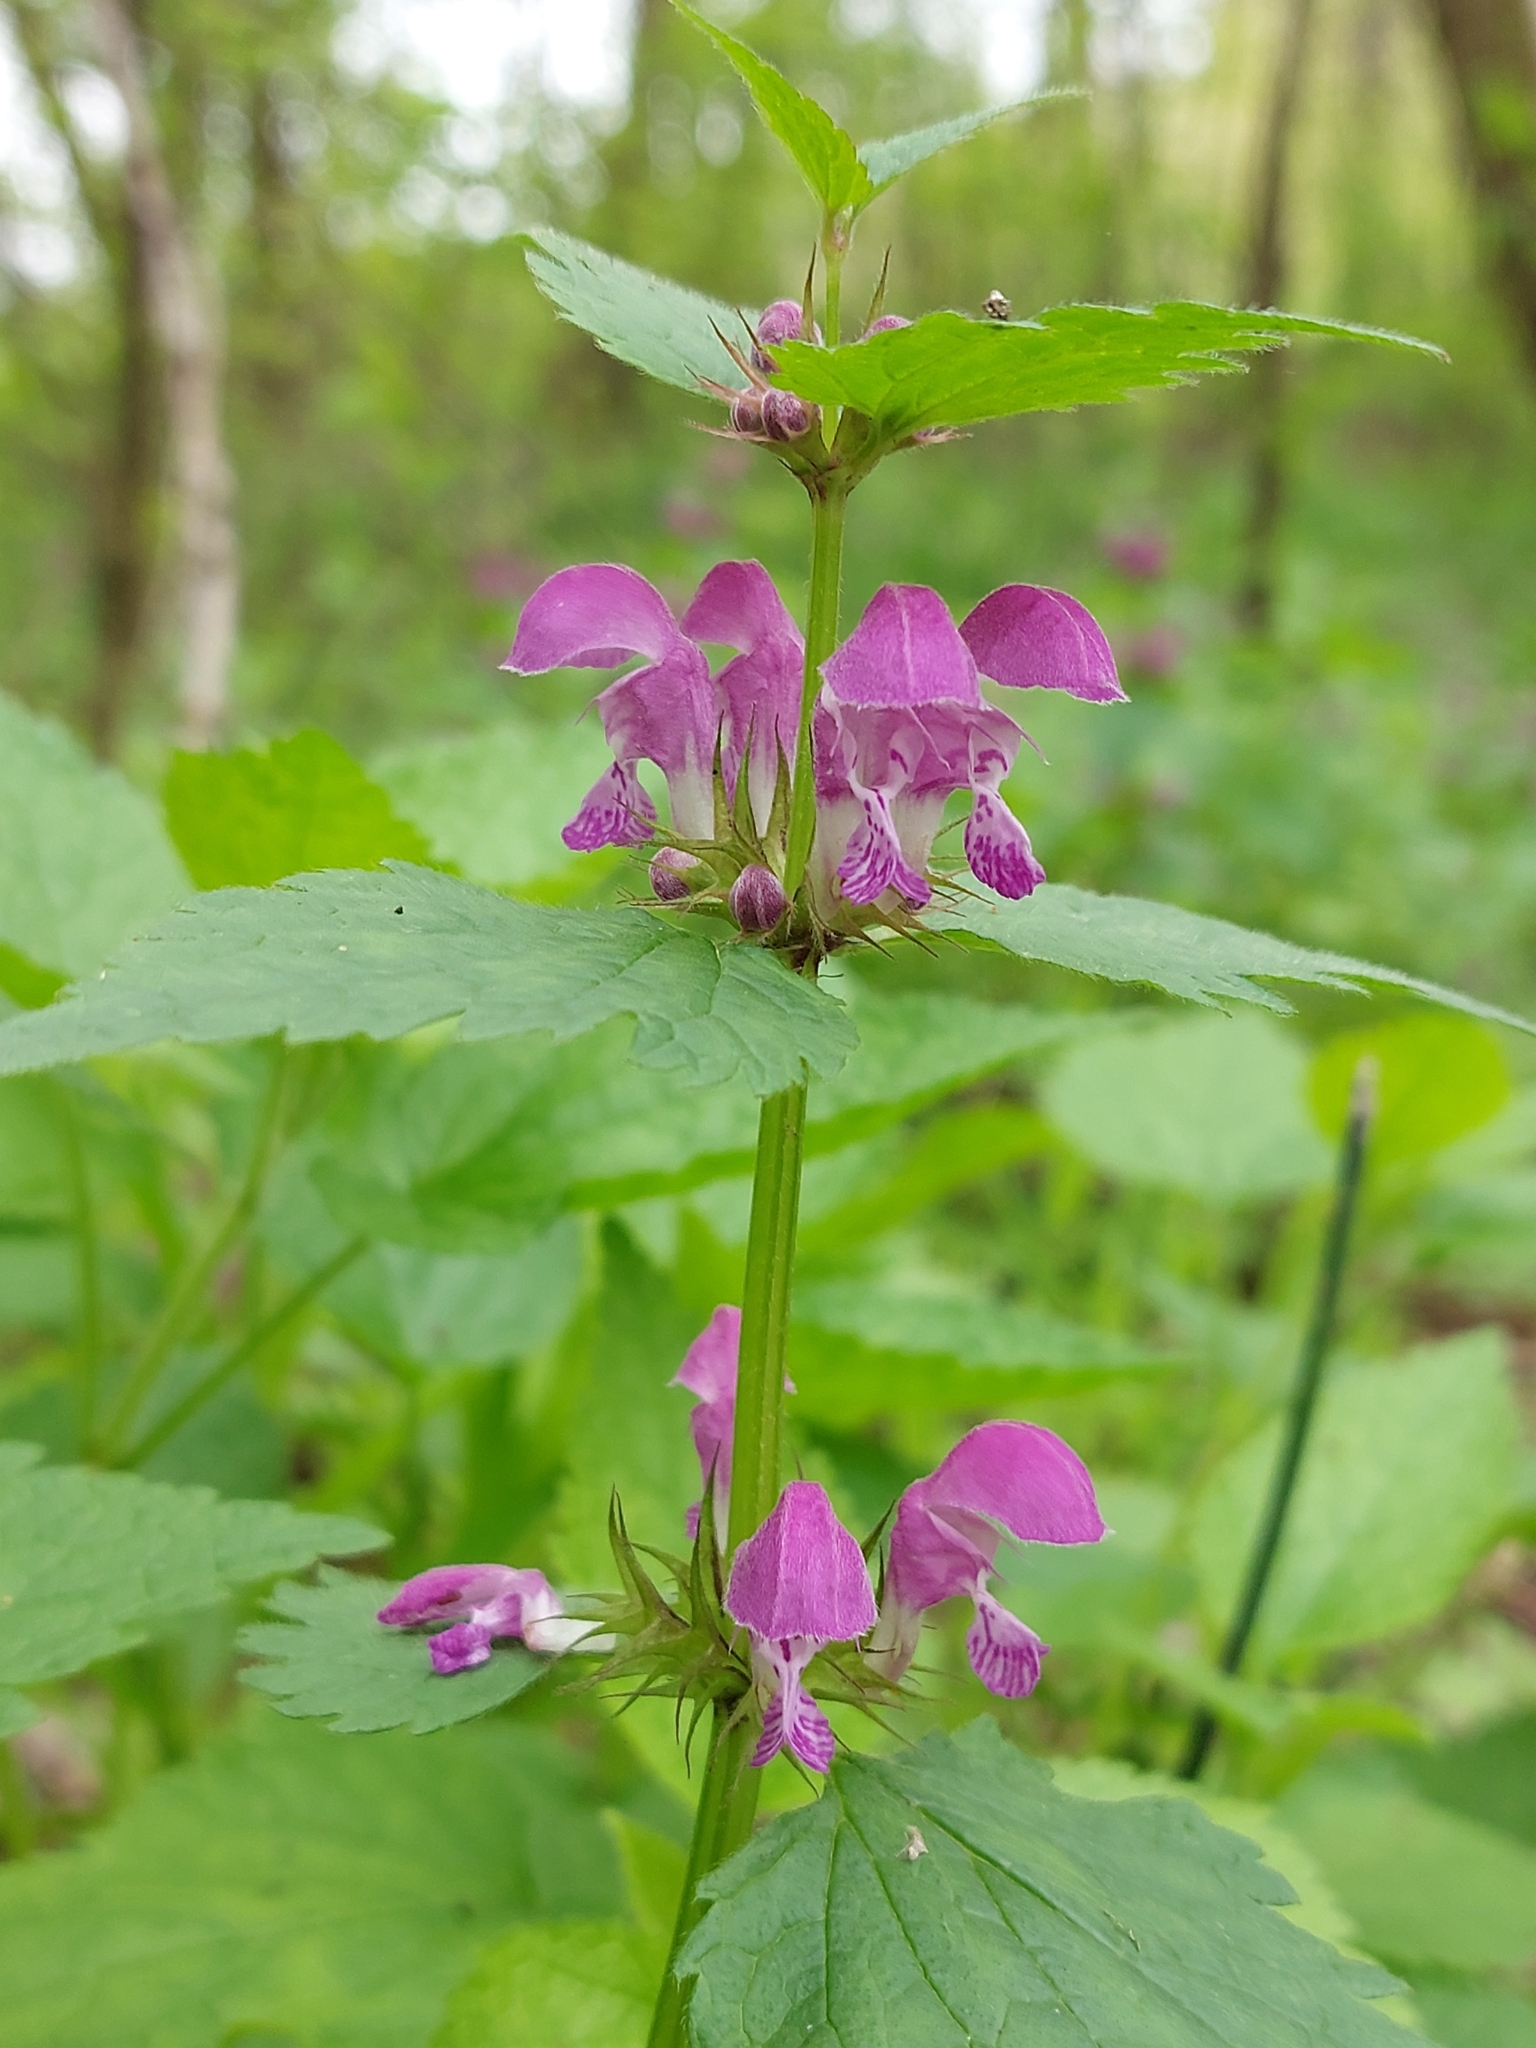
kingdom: Plantae
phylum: Tracheophyta
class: Magnoliopsida
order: Lamiales
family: Lamiaceae
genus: Lamium
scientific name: Lamium maculatum
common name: Spotted dead-nettle
